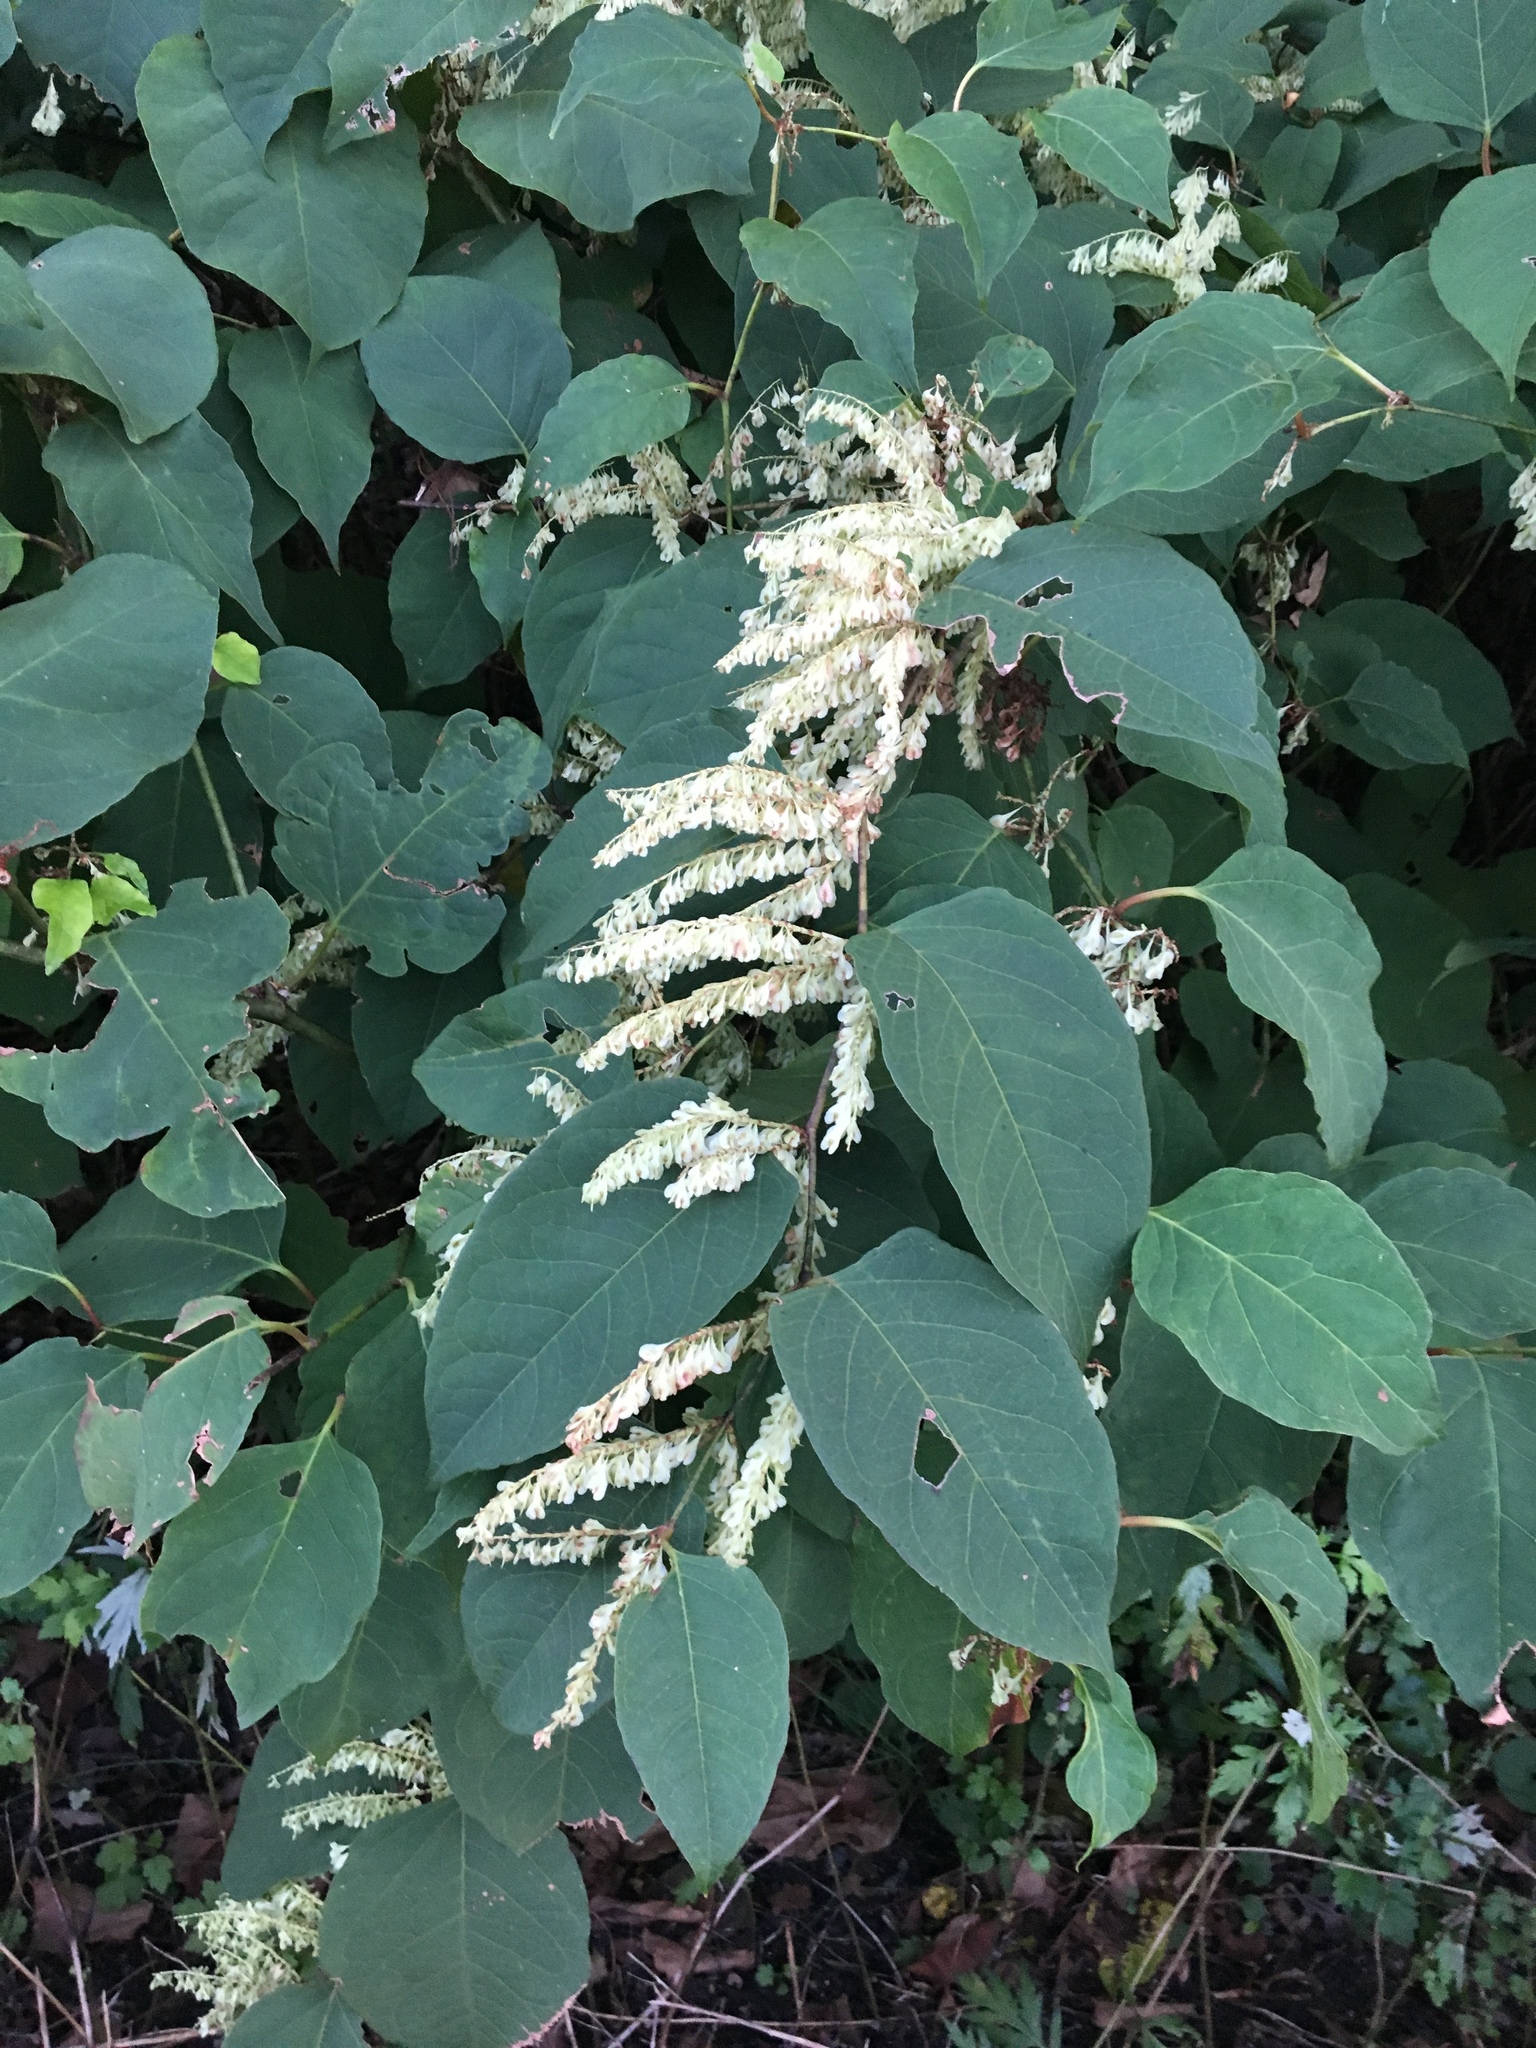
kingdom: Plantae
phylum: Tracheophyta
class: Magnoliopsida
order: Caryophyllales
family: Polygonaceae
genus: Reynoutria
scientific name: Reynoutria japonica
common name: Japanese knotweed
